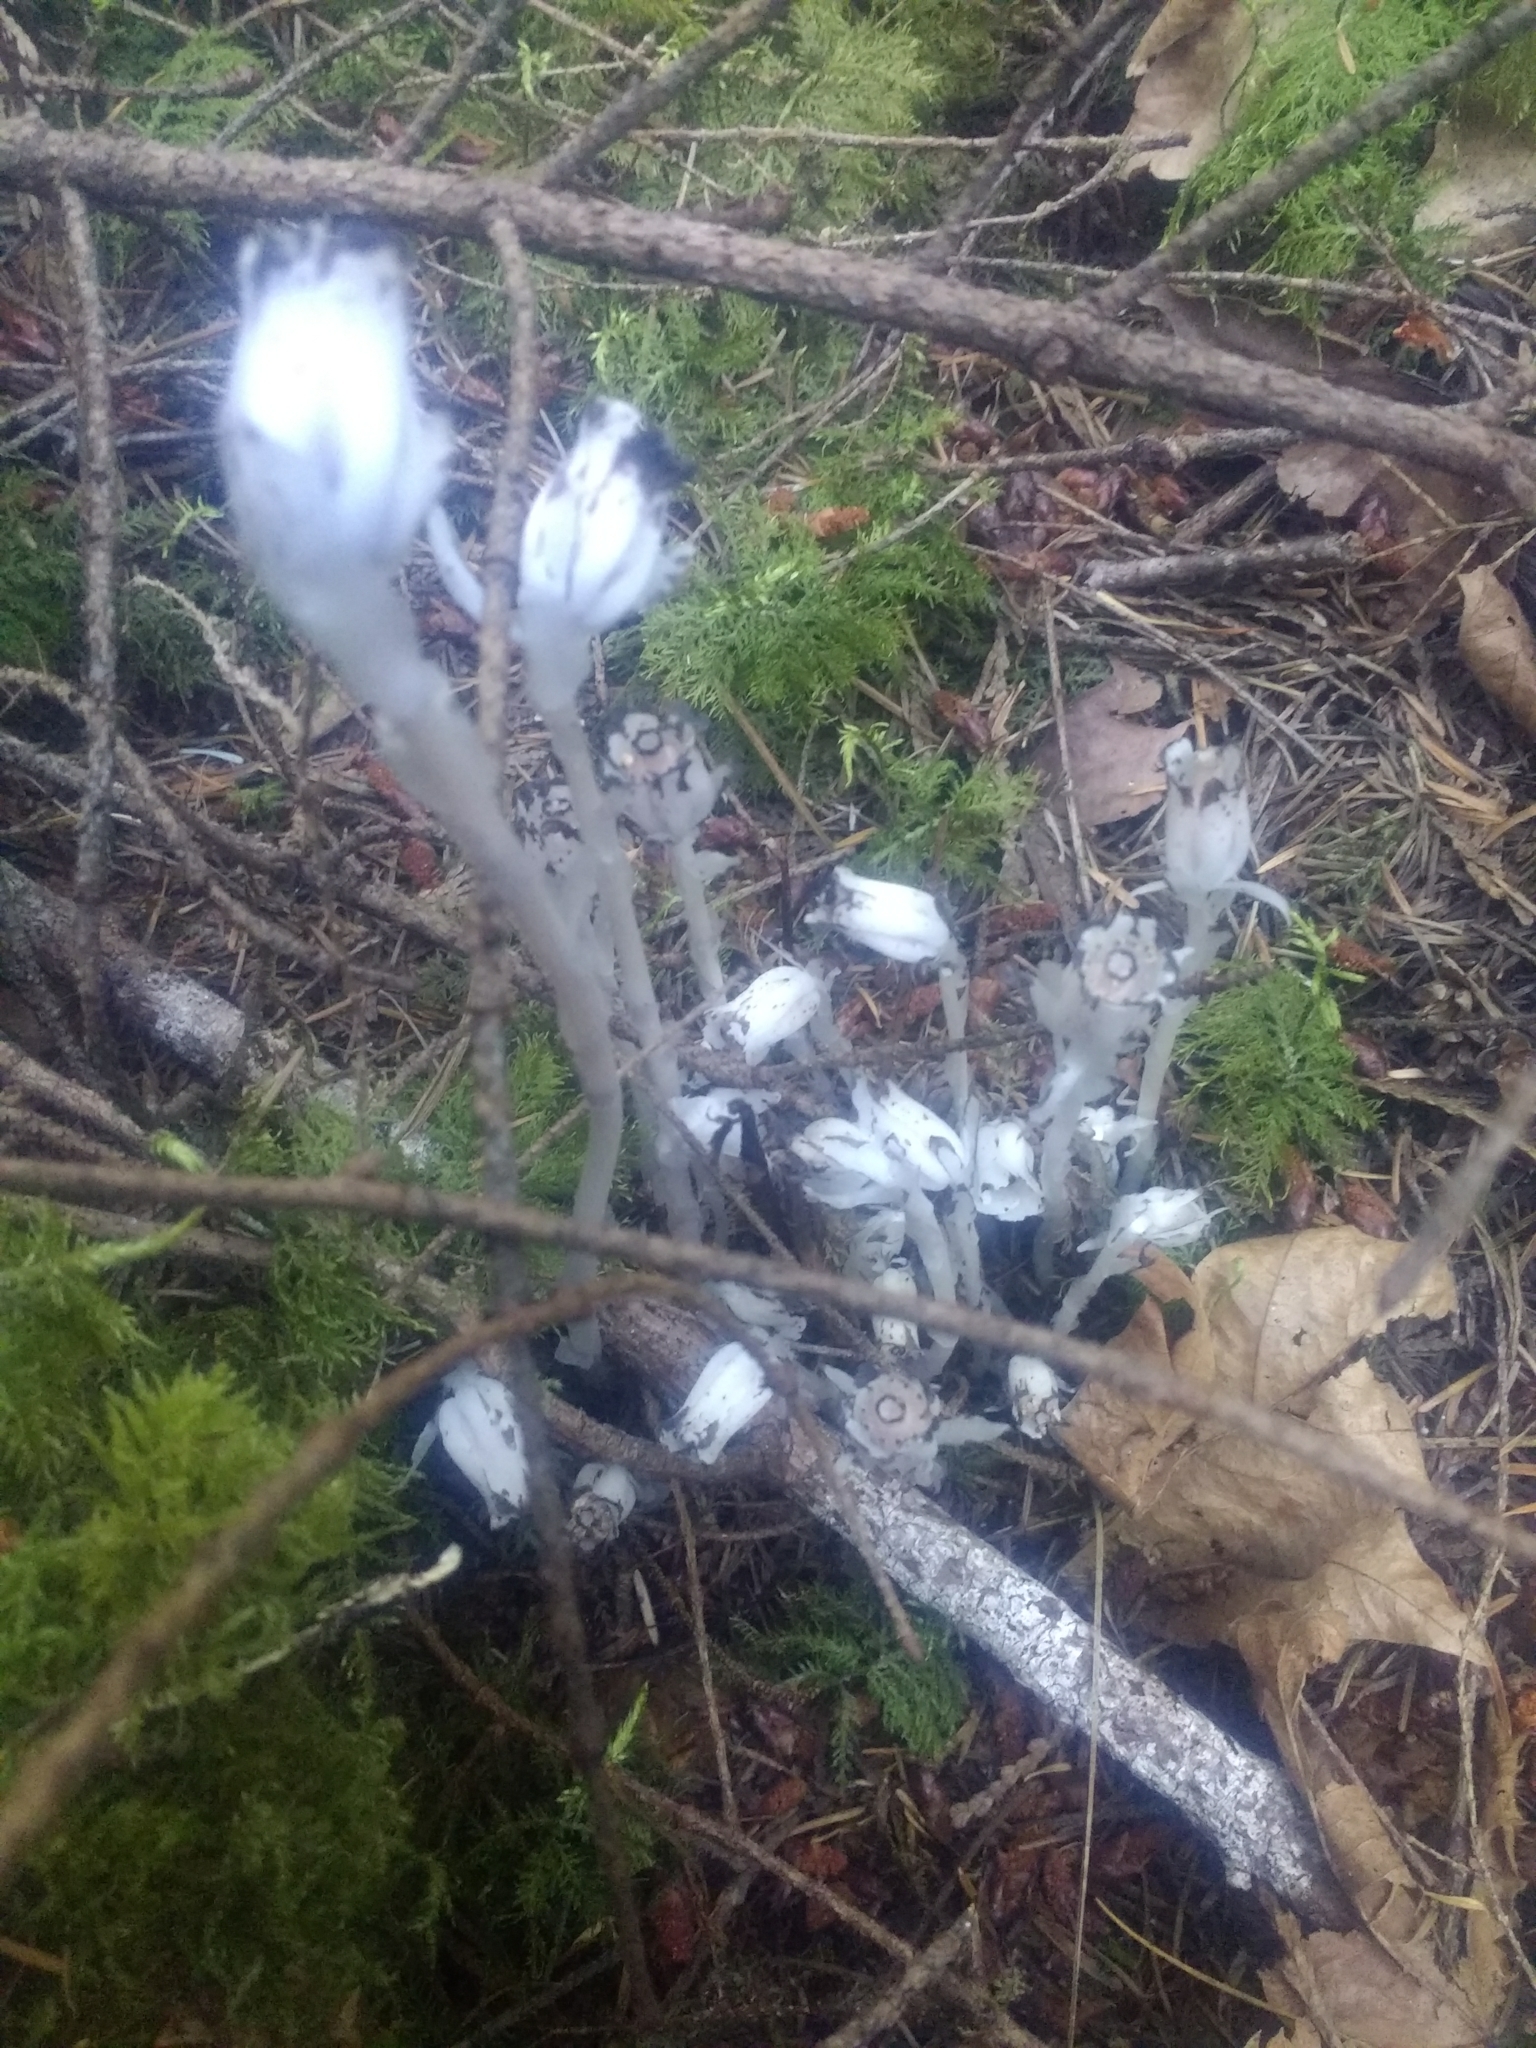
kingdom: Plantae
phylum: Tracheophyta
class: Magnoliopsida
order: Ericales
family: Ericaceae
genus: Monotropa
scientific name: Monotropa uniflora
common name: Convulsion root
